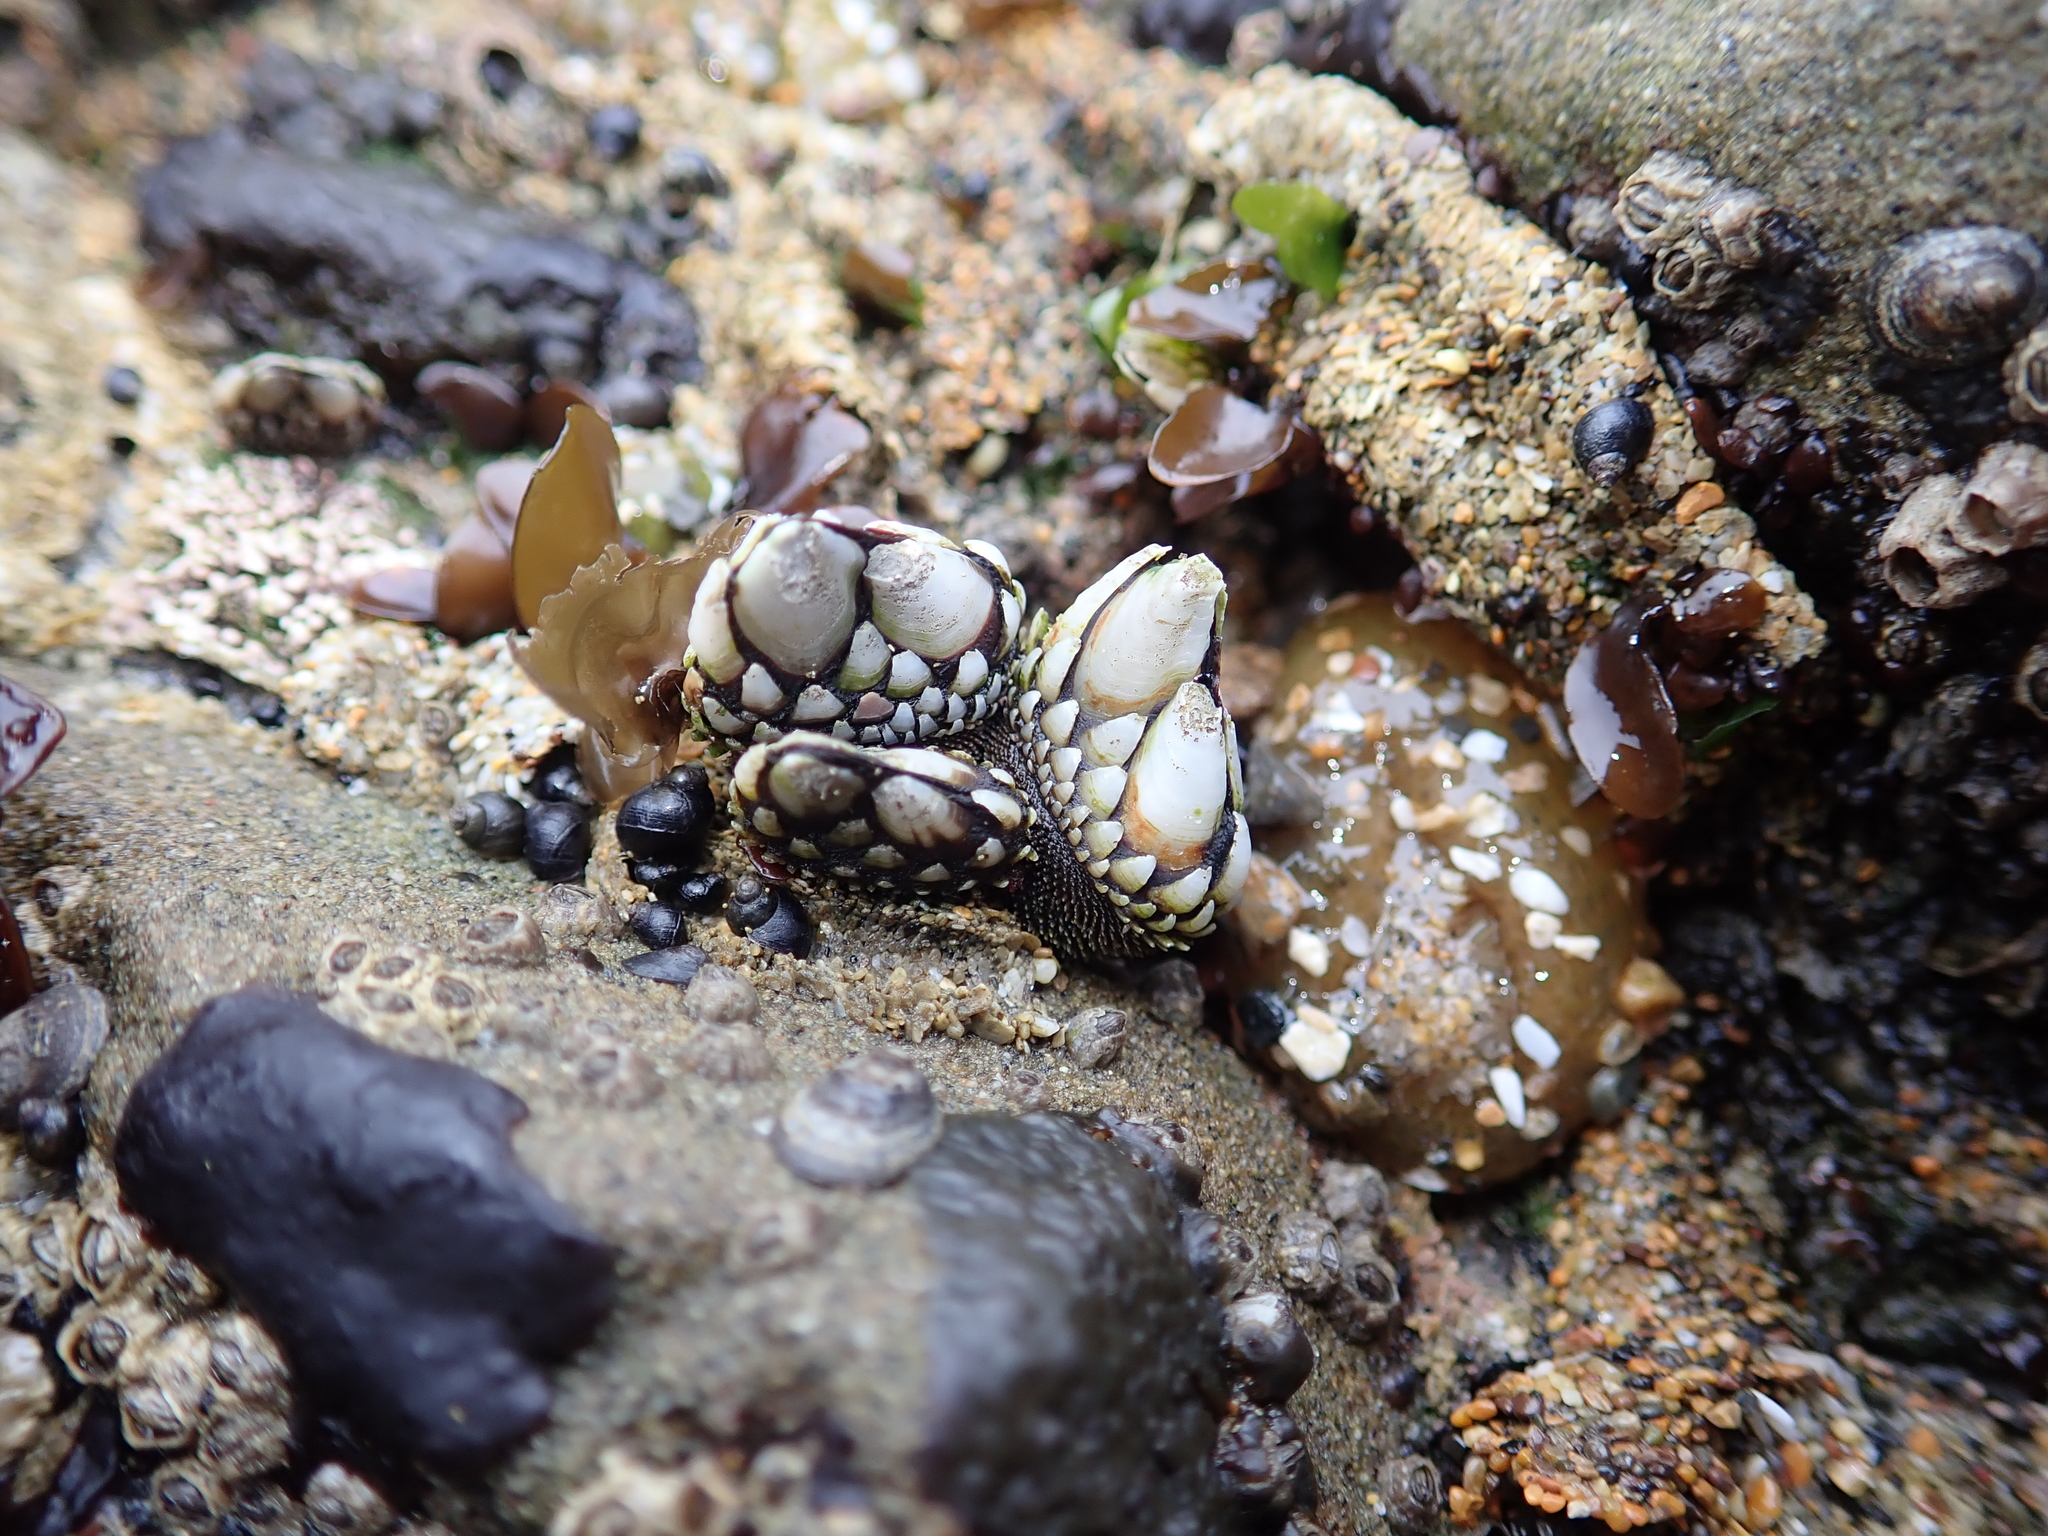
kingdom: Animalia
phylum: Arthropoda
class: Maxillopoda
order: Pedunculata
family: Pollicipedidae
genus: Pollicipes
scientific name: Pollicipes polymerus
